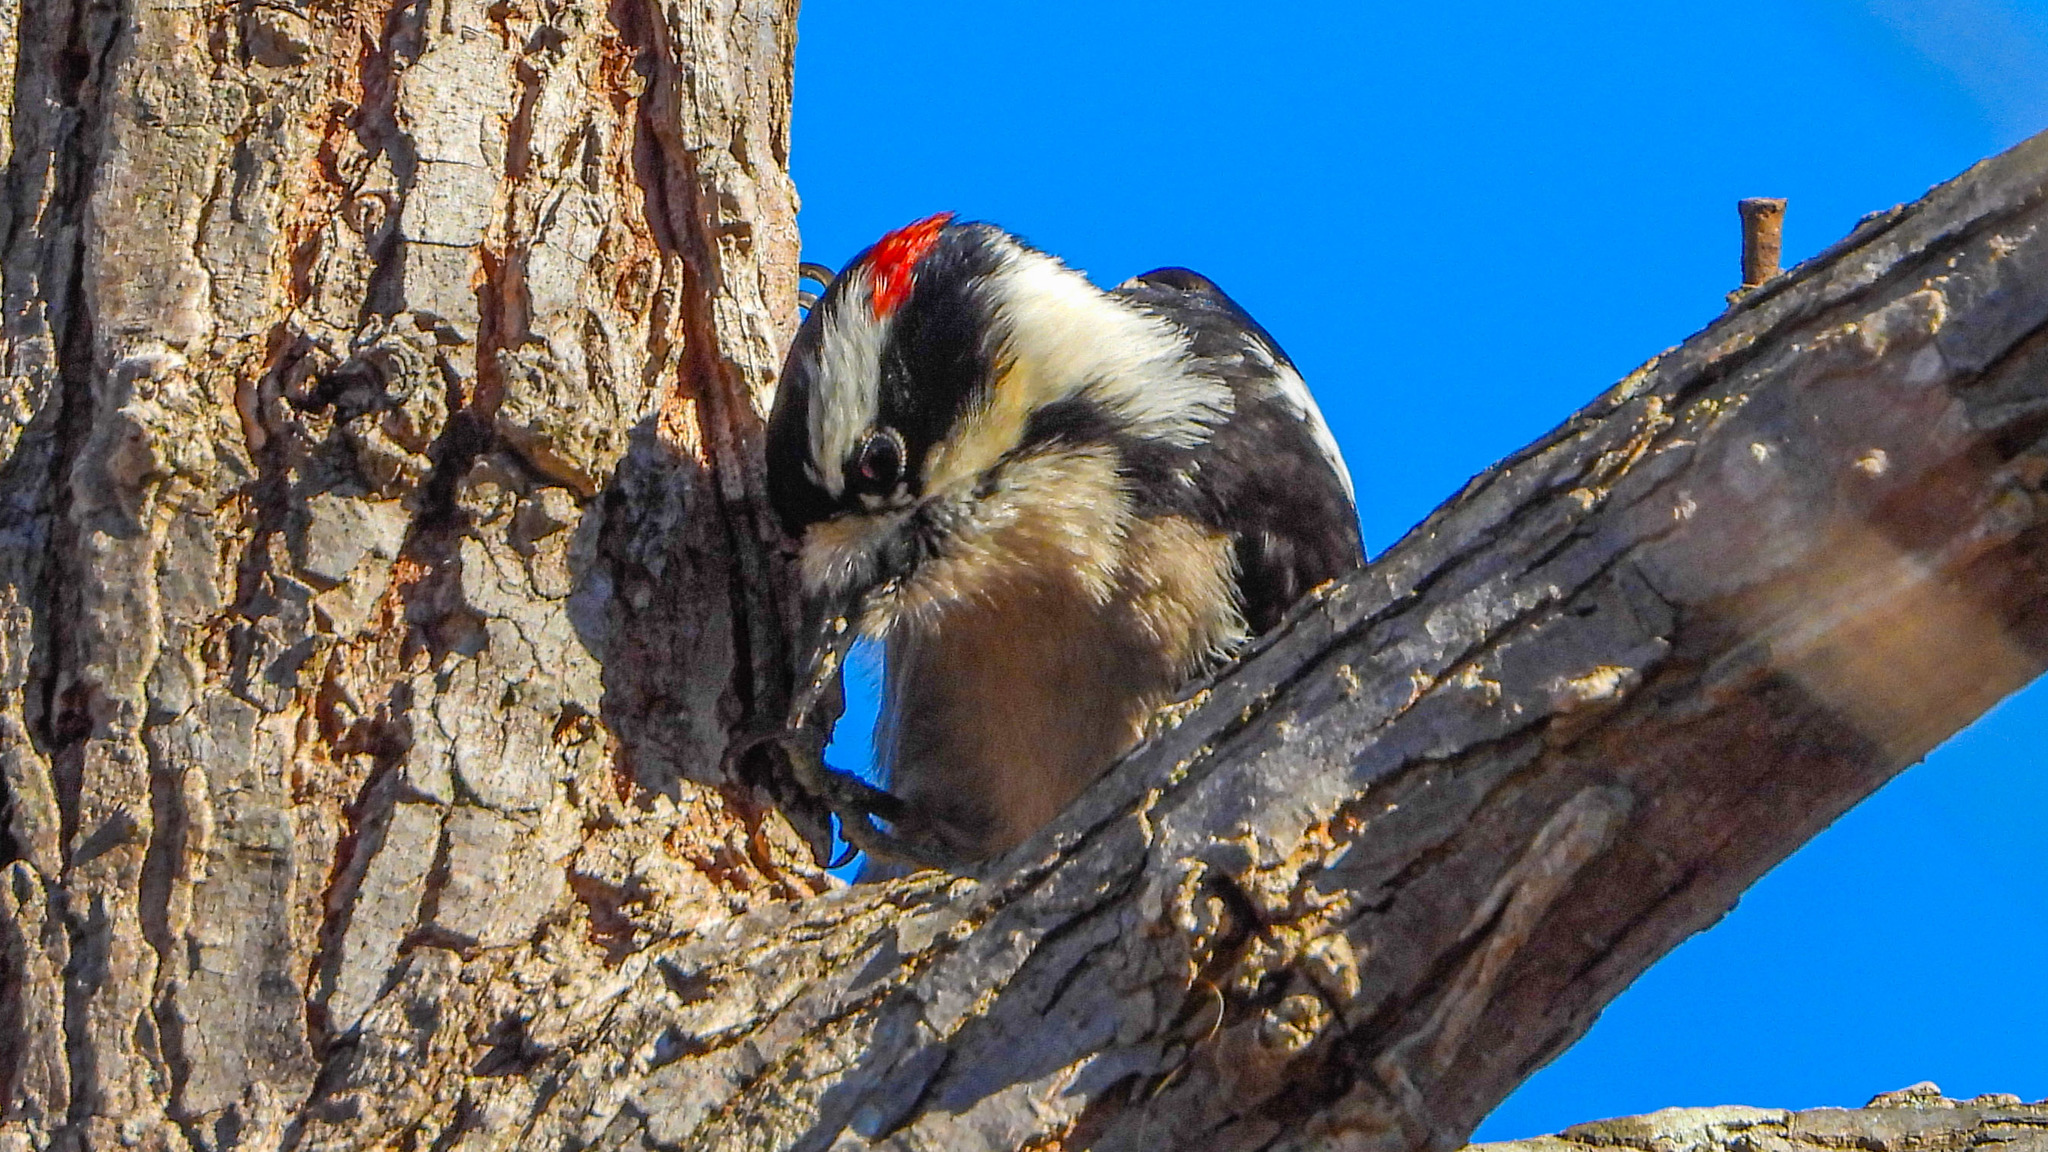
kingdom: Animalia
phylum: Chordata
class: Aves
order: Piciformes
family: Picidae
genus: Dryobates
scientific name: Dryobates pubescens
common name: Downy woodpecker
